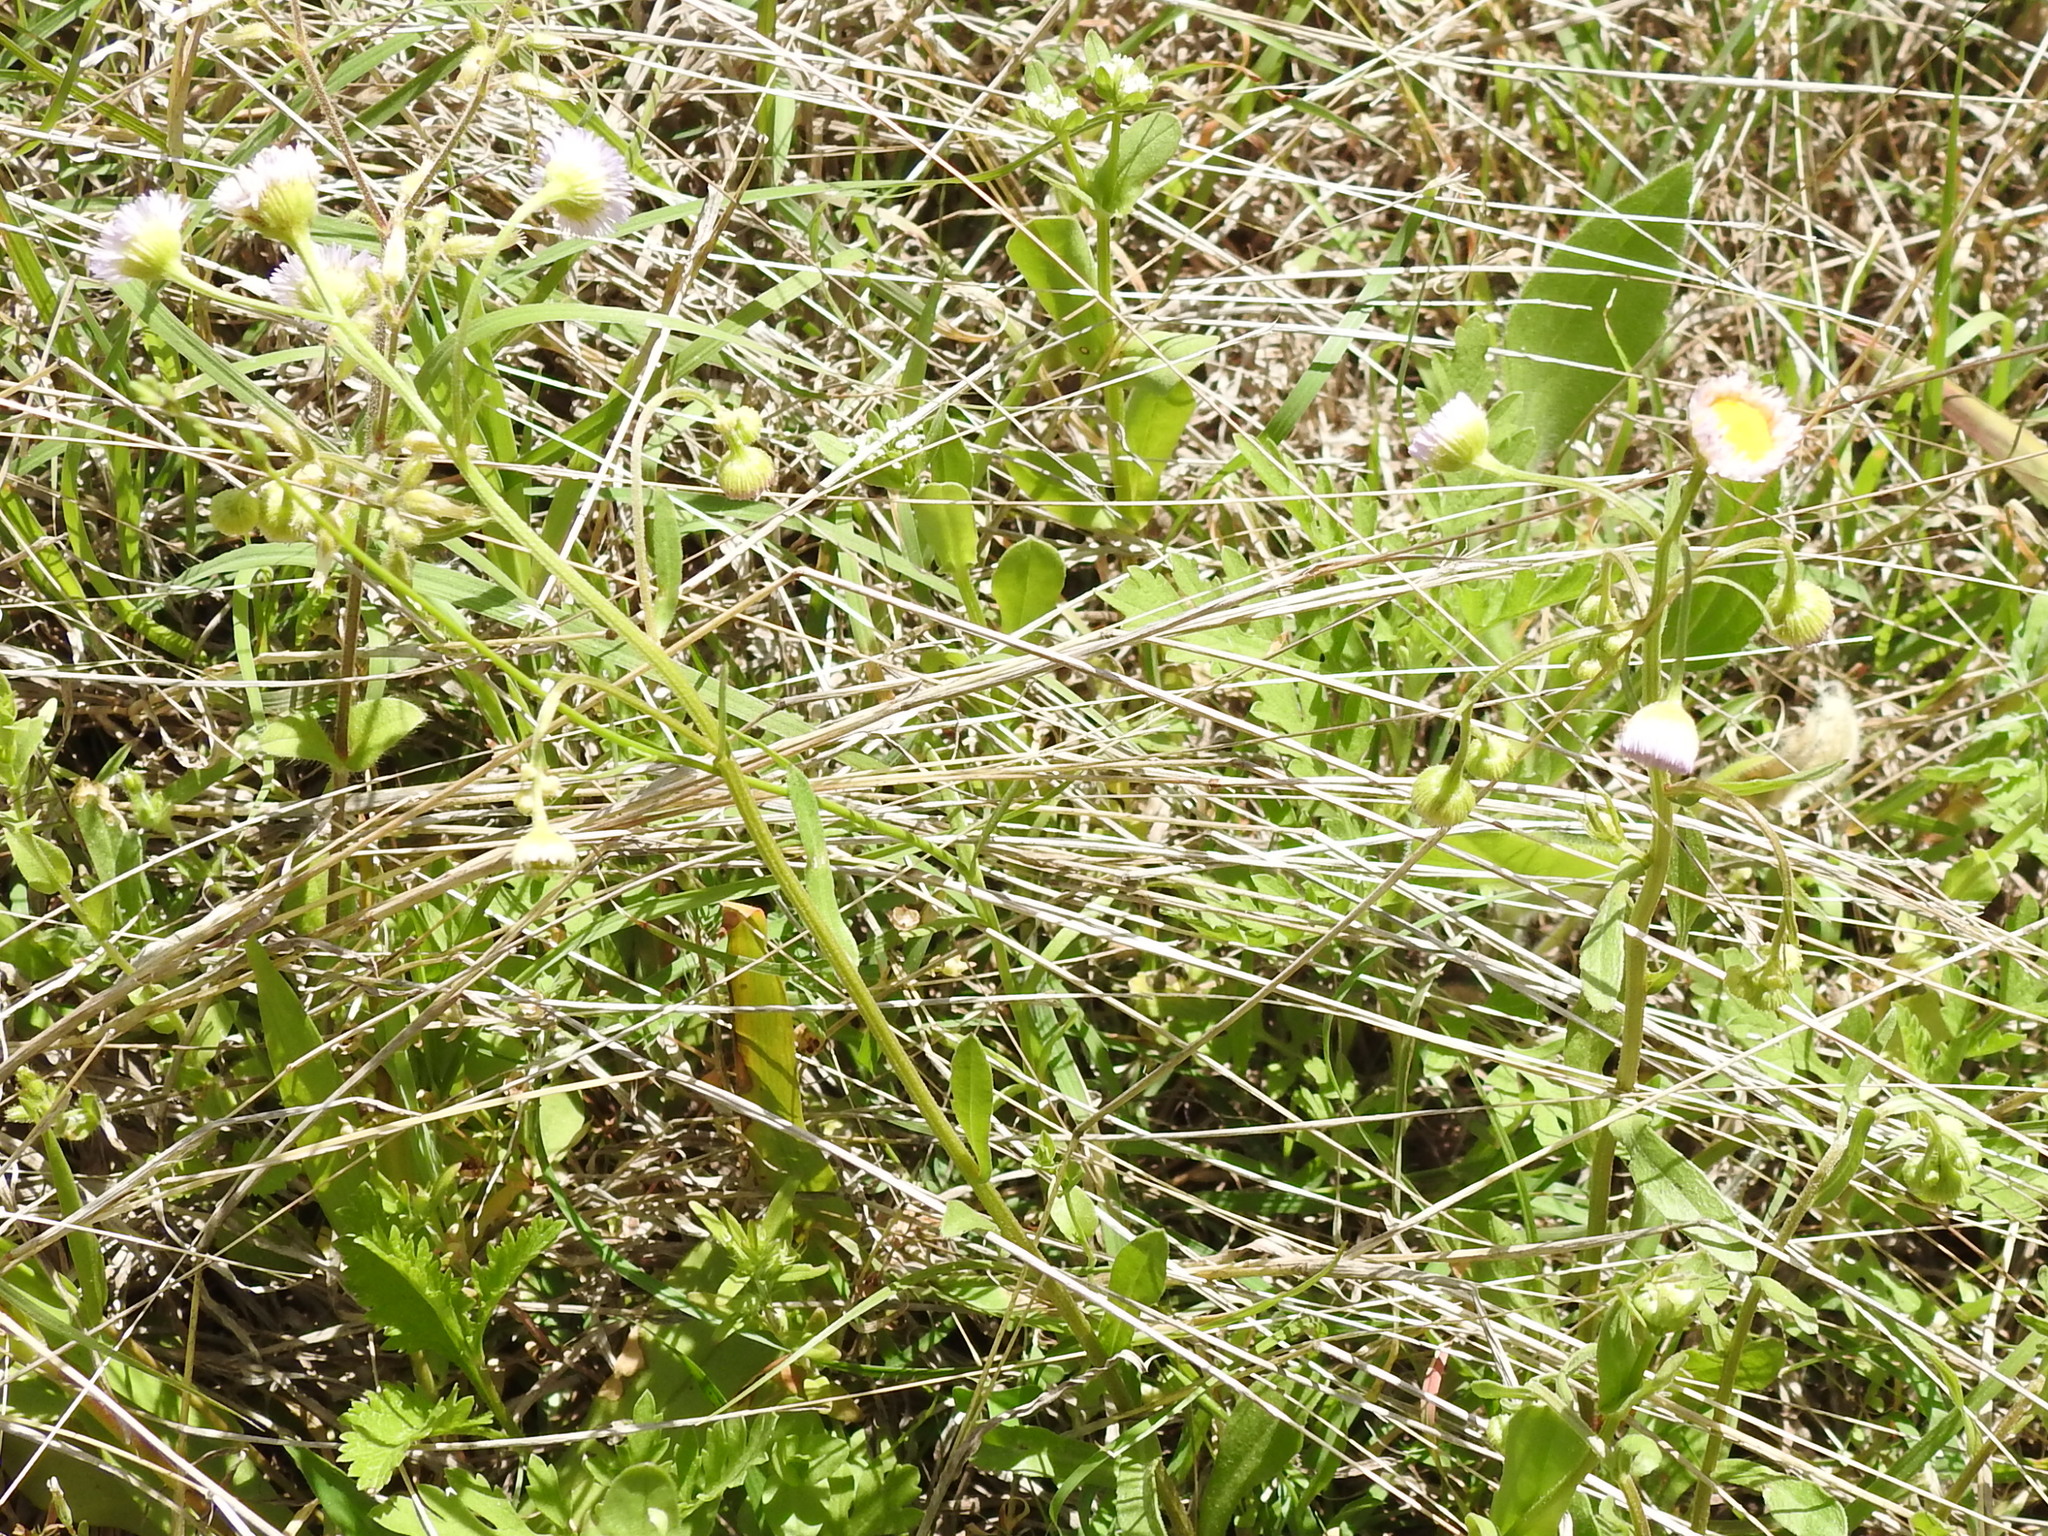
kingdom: Plantae
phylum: Tracheophyta
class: Magnoliopsida
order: Asterales
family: Asteraceae
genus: Erigeron
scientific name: Erigeron strigosus
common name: Common eastern fleabane
